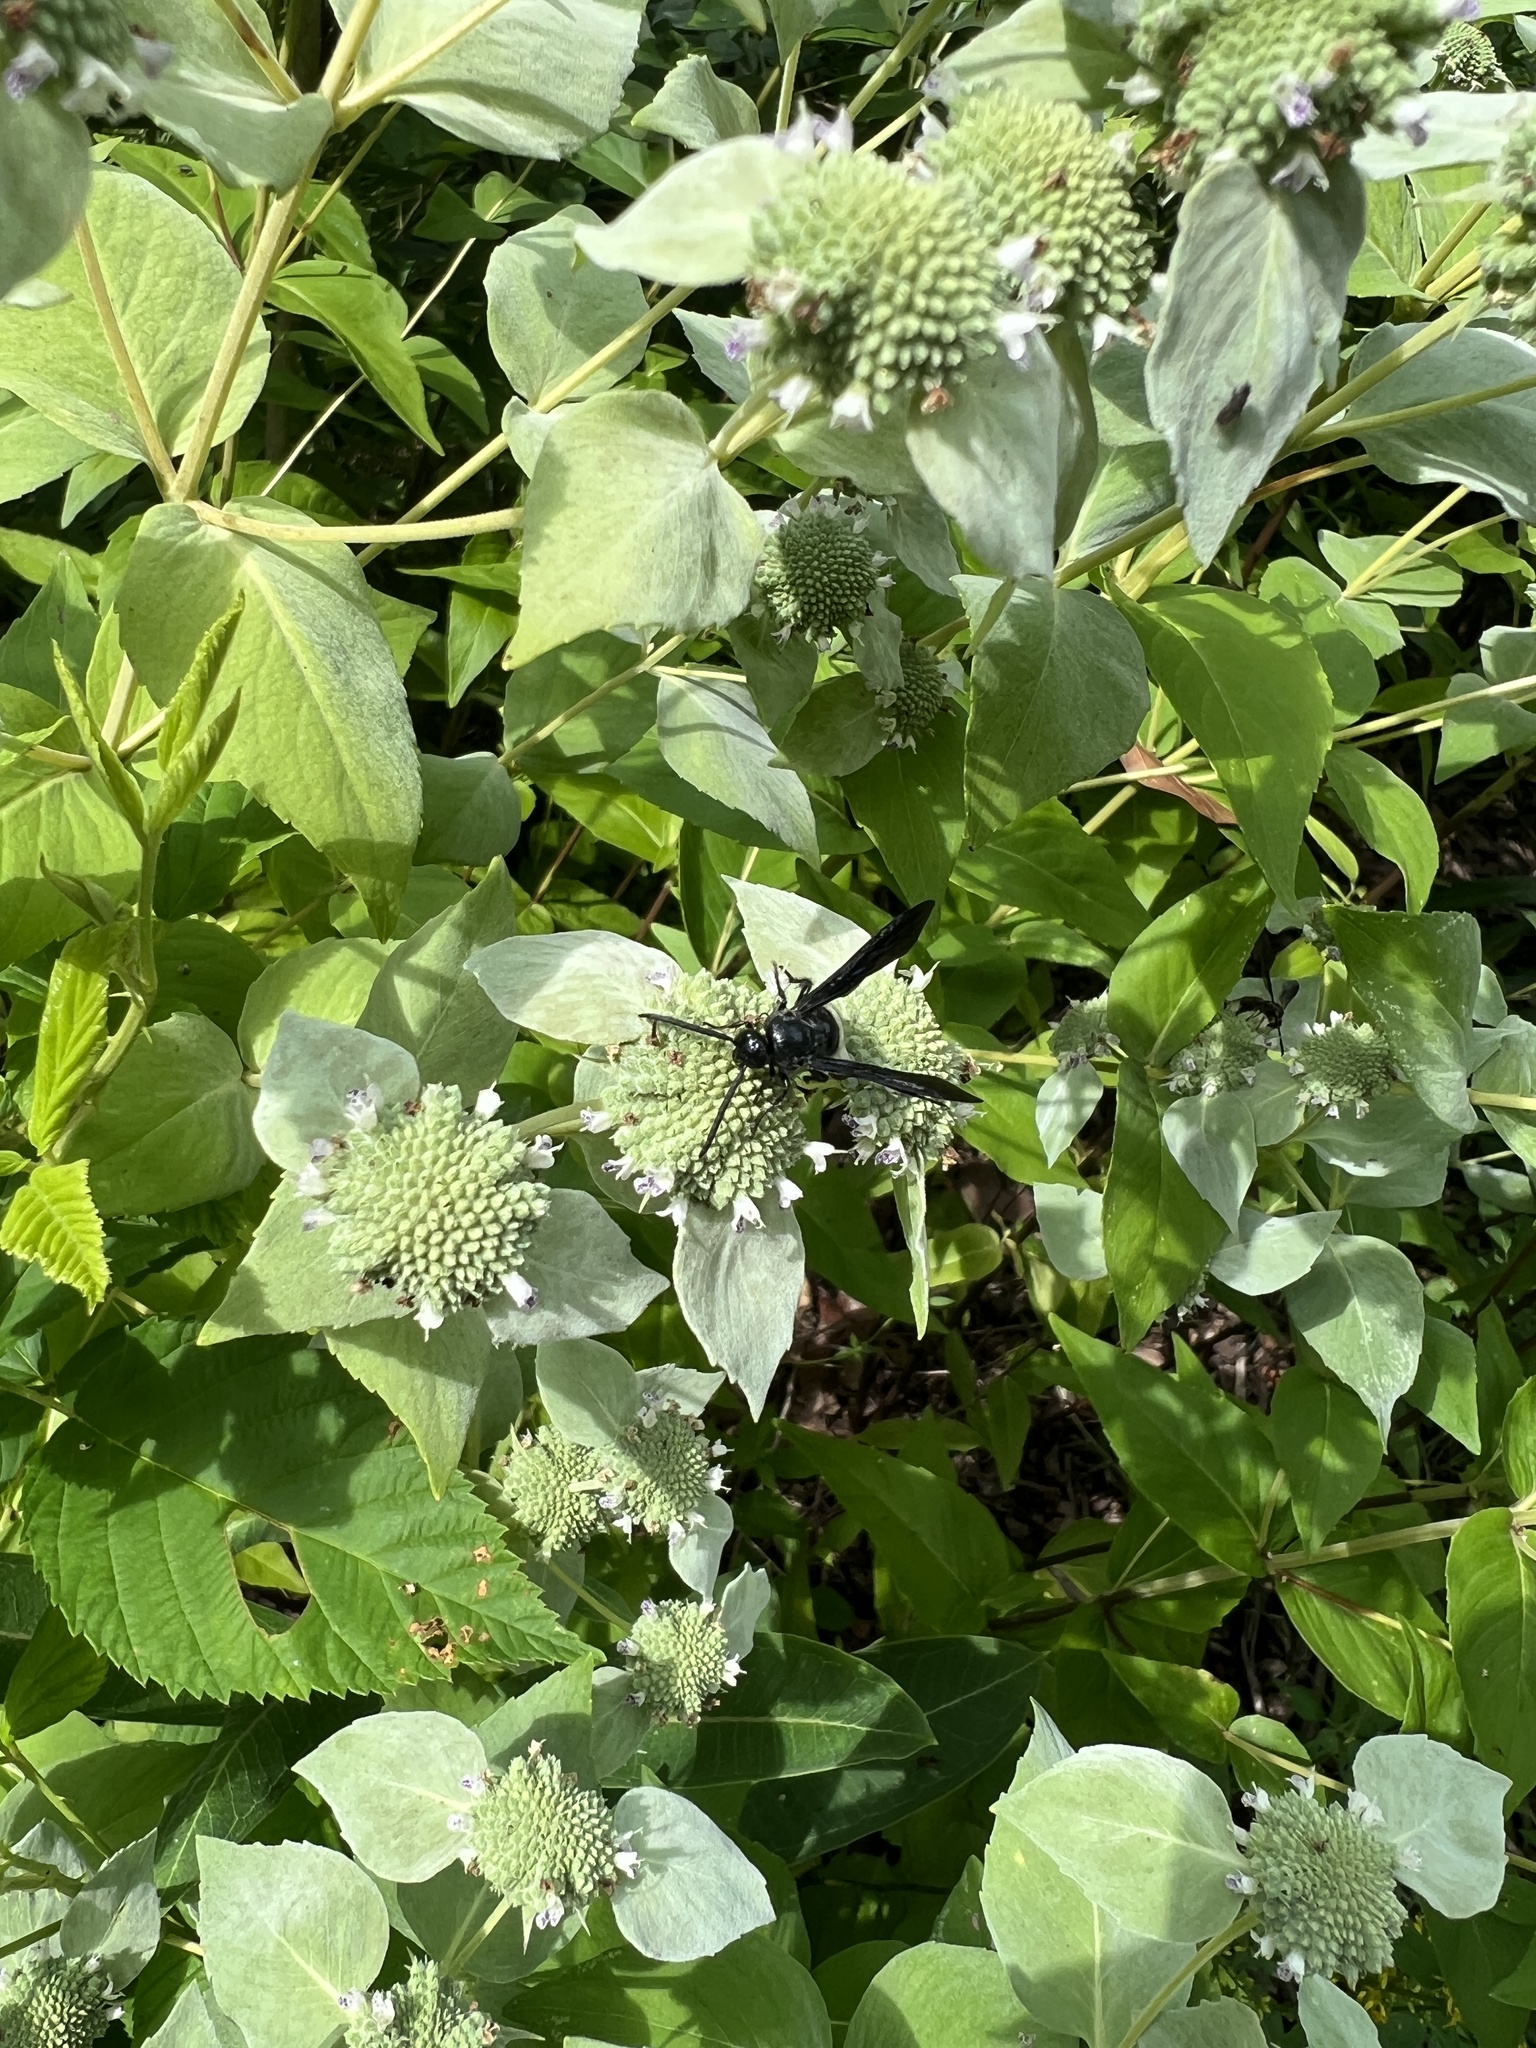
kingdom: Animalia
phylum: Arthropoda
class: Insecta
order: Hymenoptera
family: Scoliidae
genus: Scolia
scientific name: Scolia bicincta
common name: Double-banded scoliid wasp
